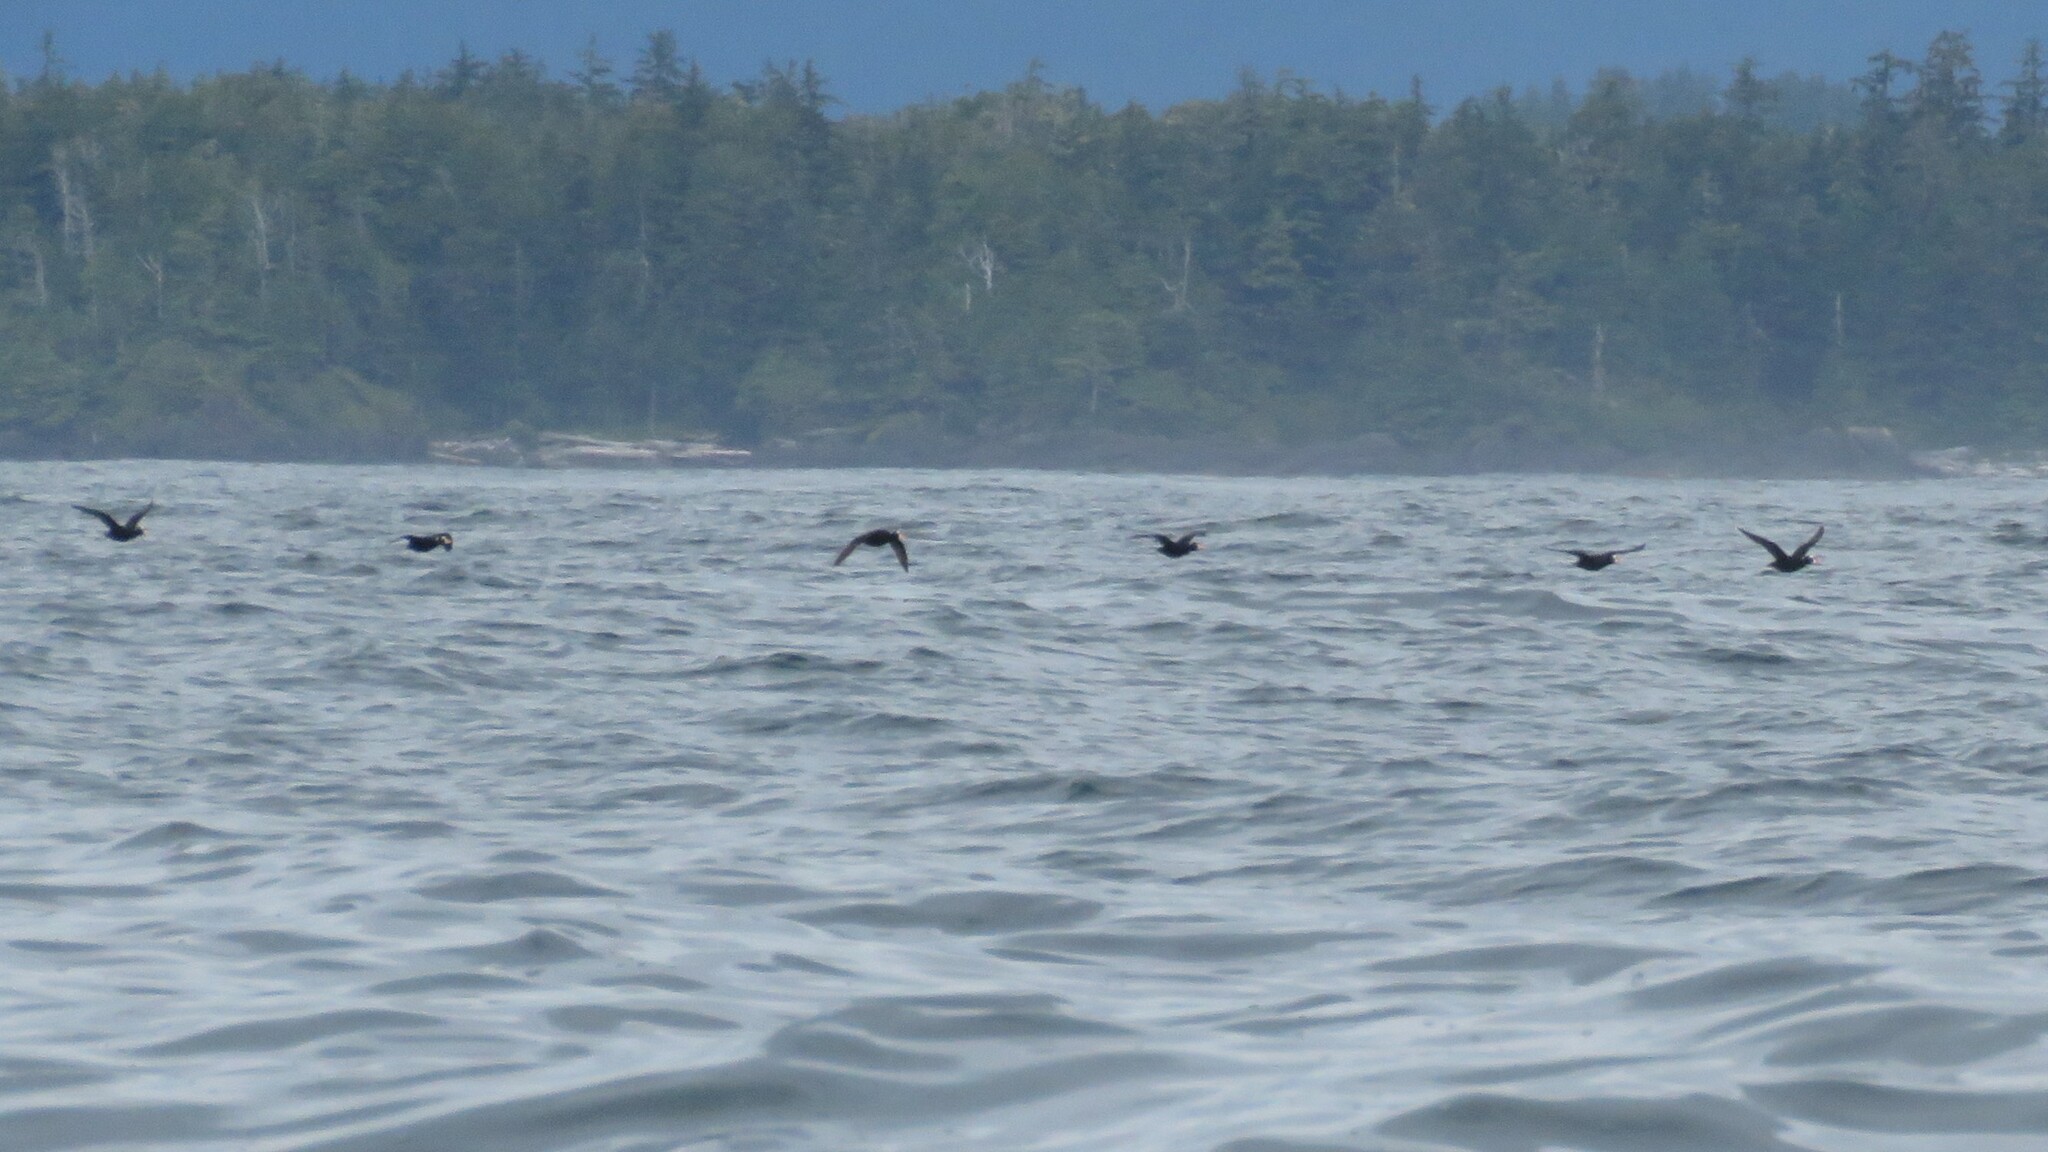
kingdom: Animalia
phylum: Chordata
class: Aves
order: Anseriformes
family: Anatidae
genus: Melanitta
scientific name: Melanitta perspicillata
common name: Surf scoter
